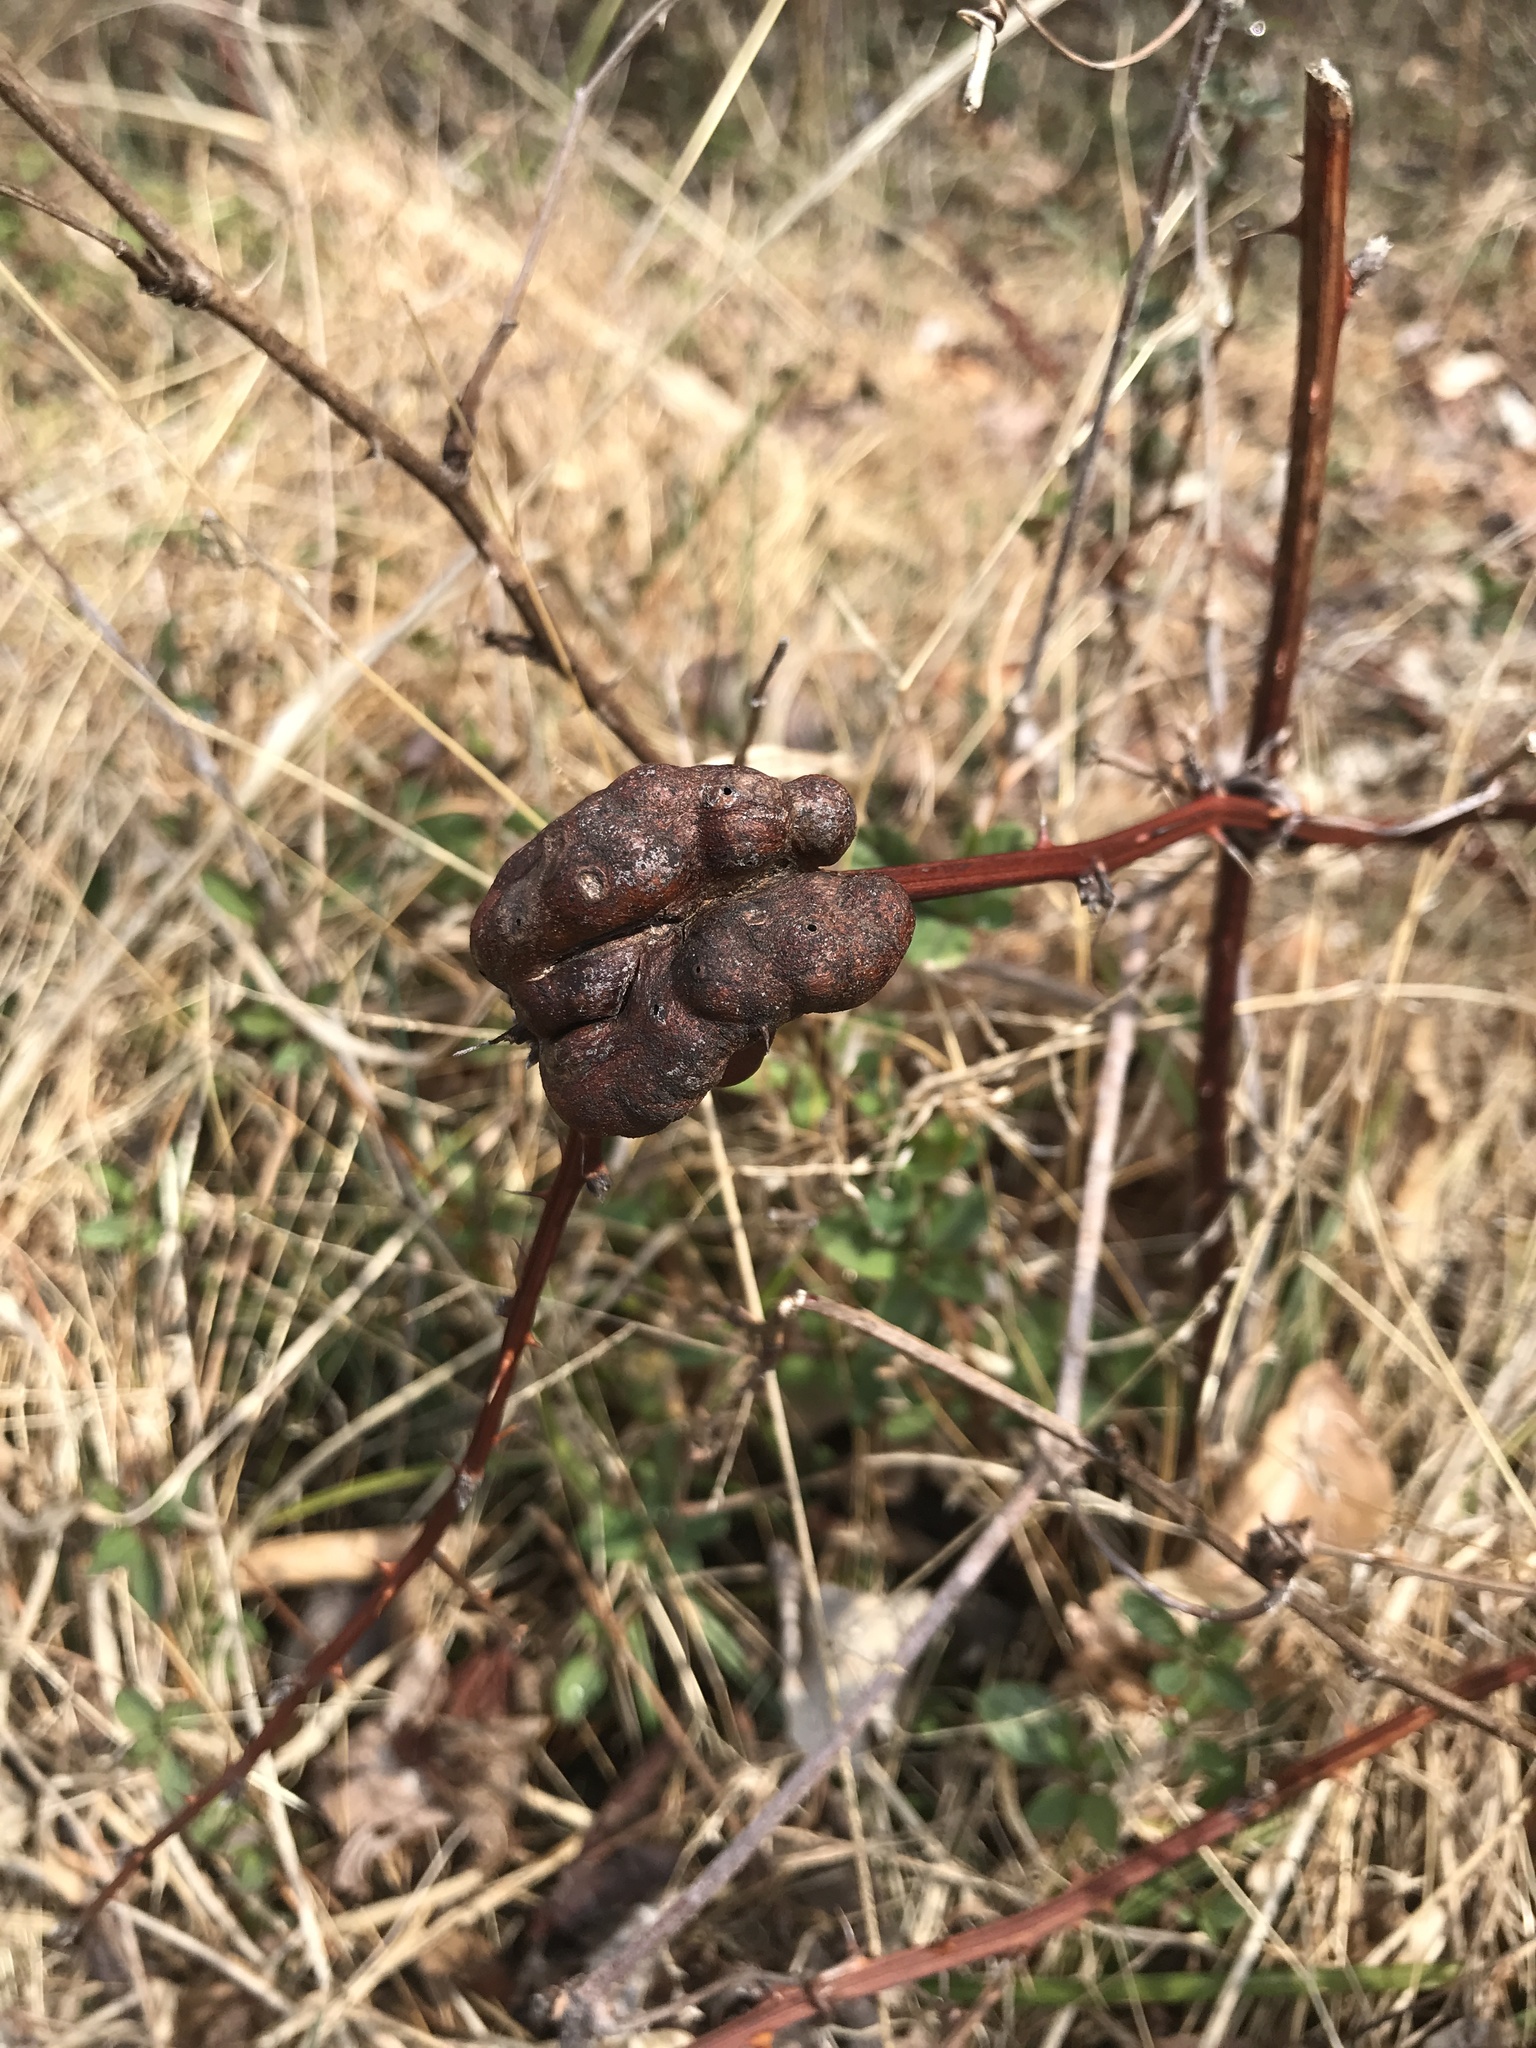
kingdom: Animalia
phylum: Arthropoda
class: Insecta
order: Hymenoptera
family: Cynipidae
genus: Diastrophus
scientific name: Diastrophus
